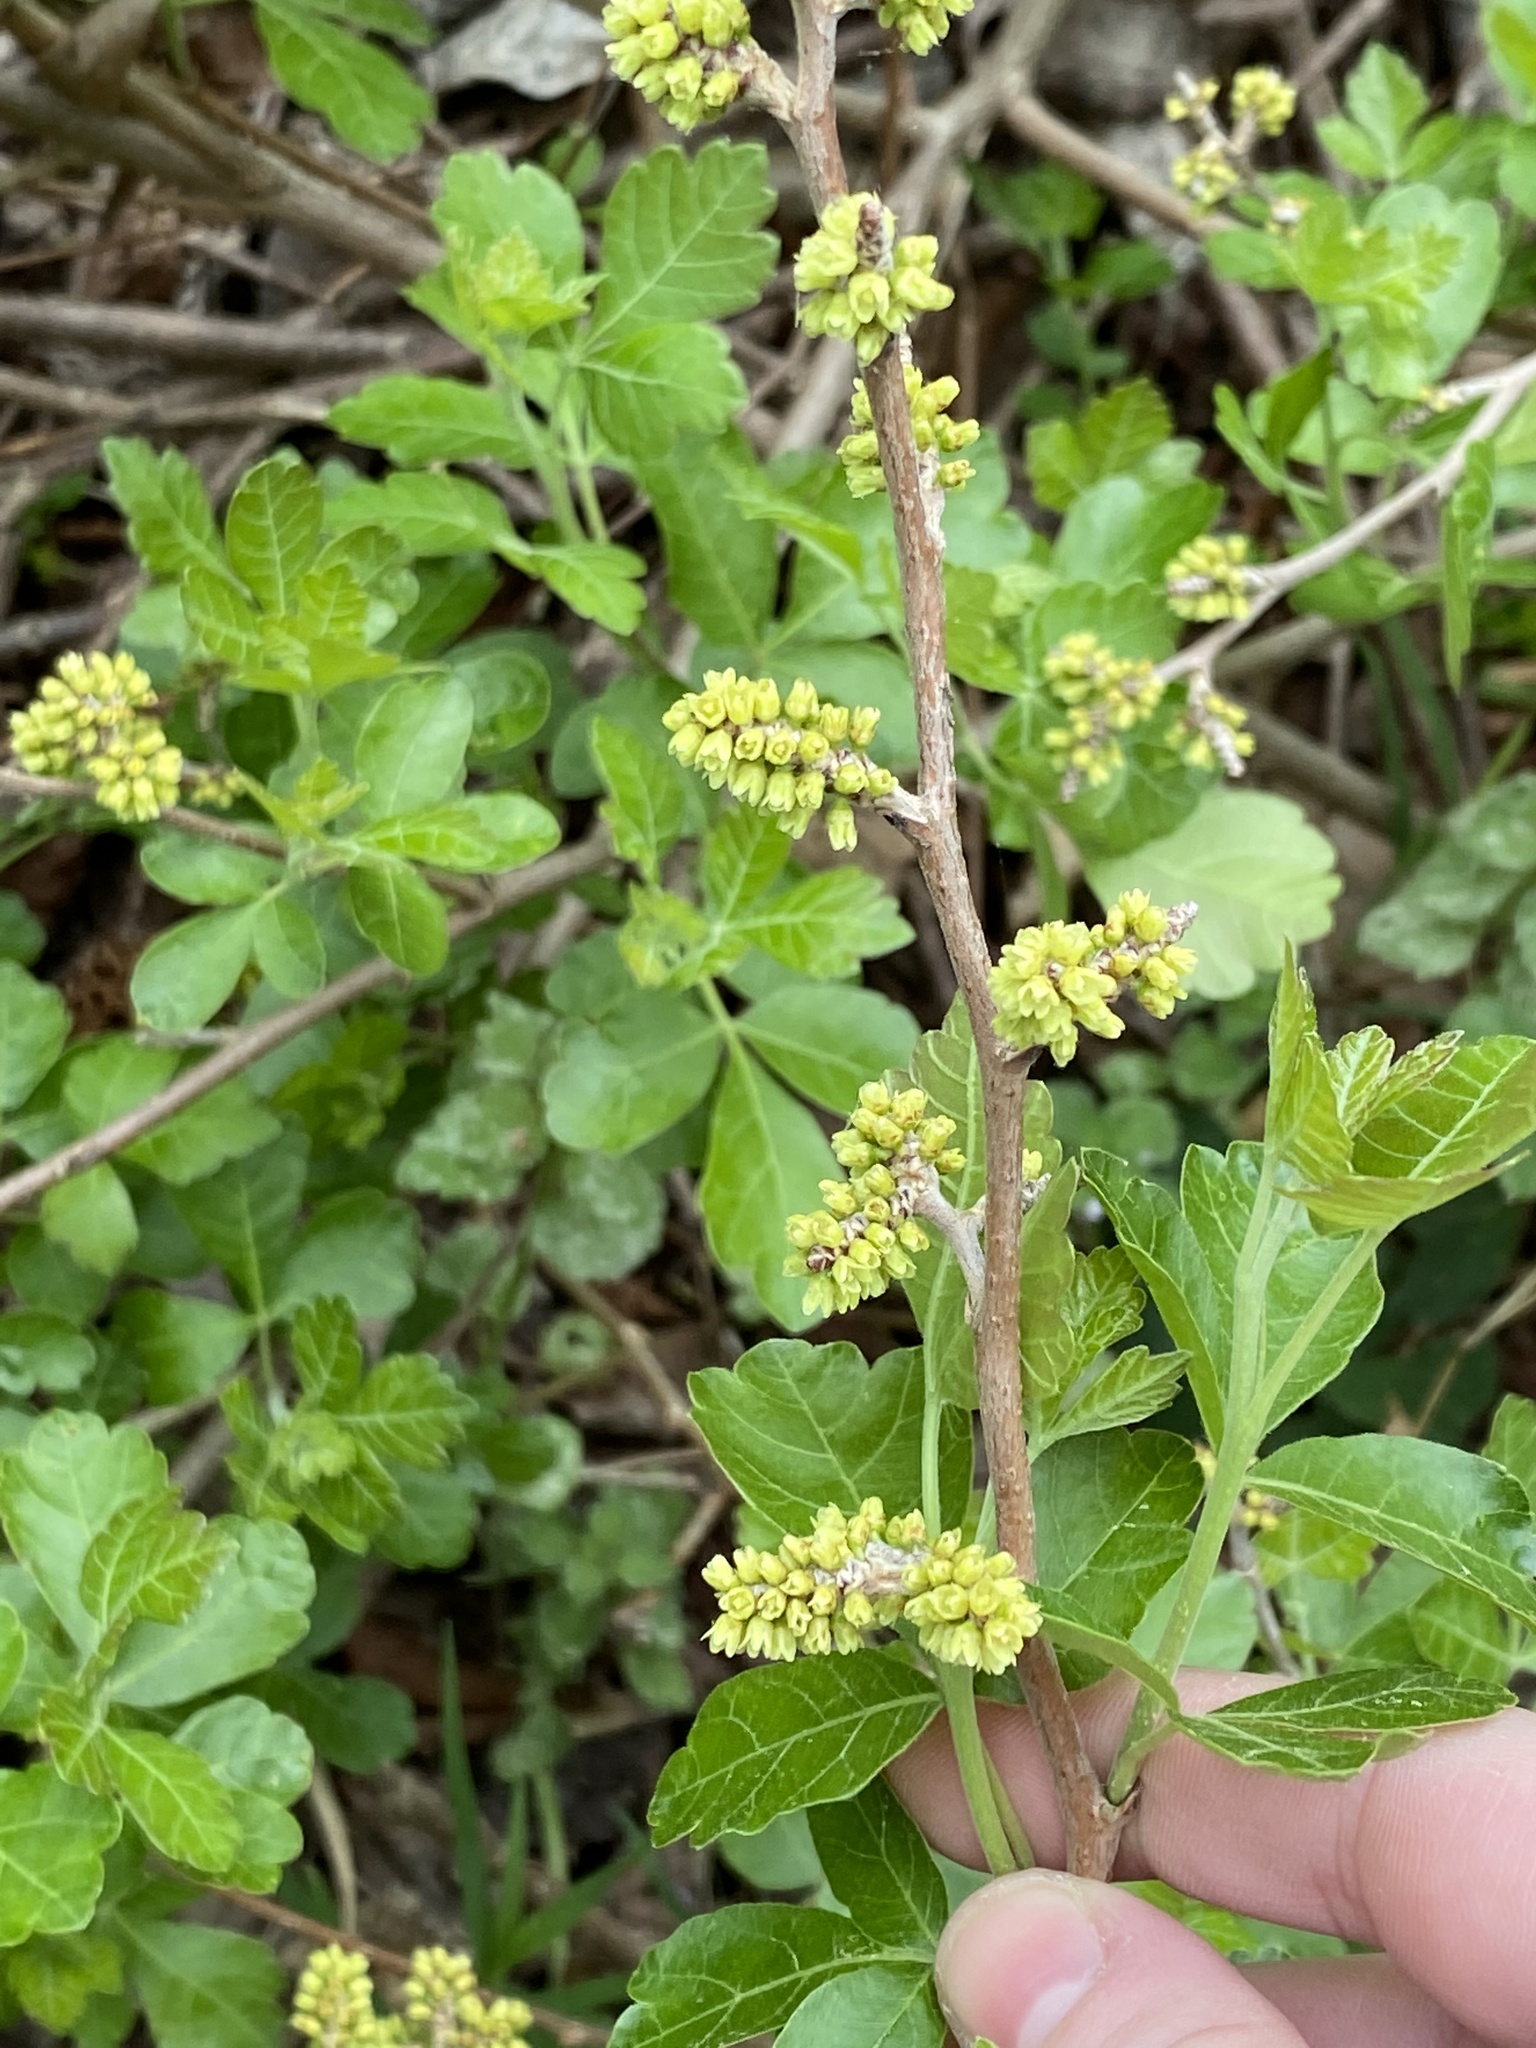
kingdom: Plantae
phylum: Tracheophyta
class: Magnoliopsida
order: Sapindales
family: Anacardiaceae
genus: Rhus
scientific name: Rhus aromatica
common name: Aromatic sumac
